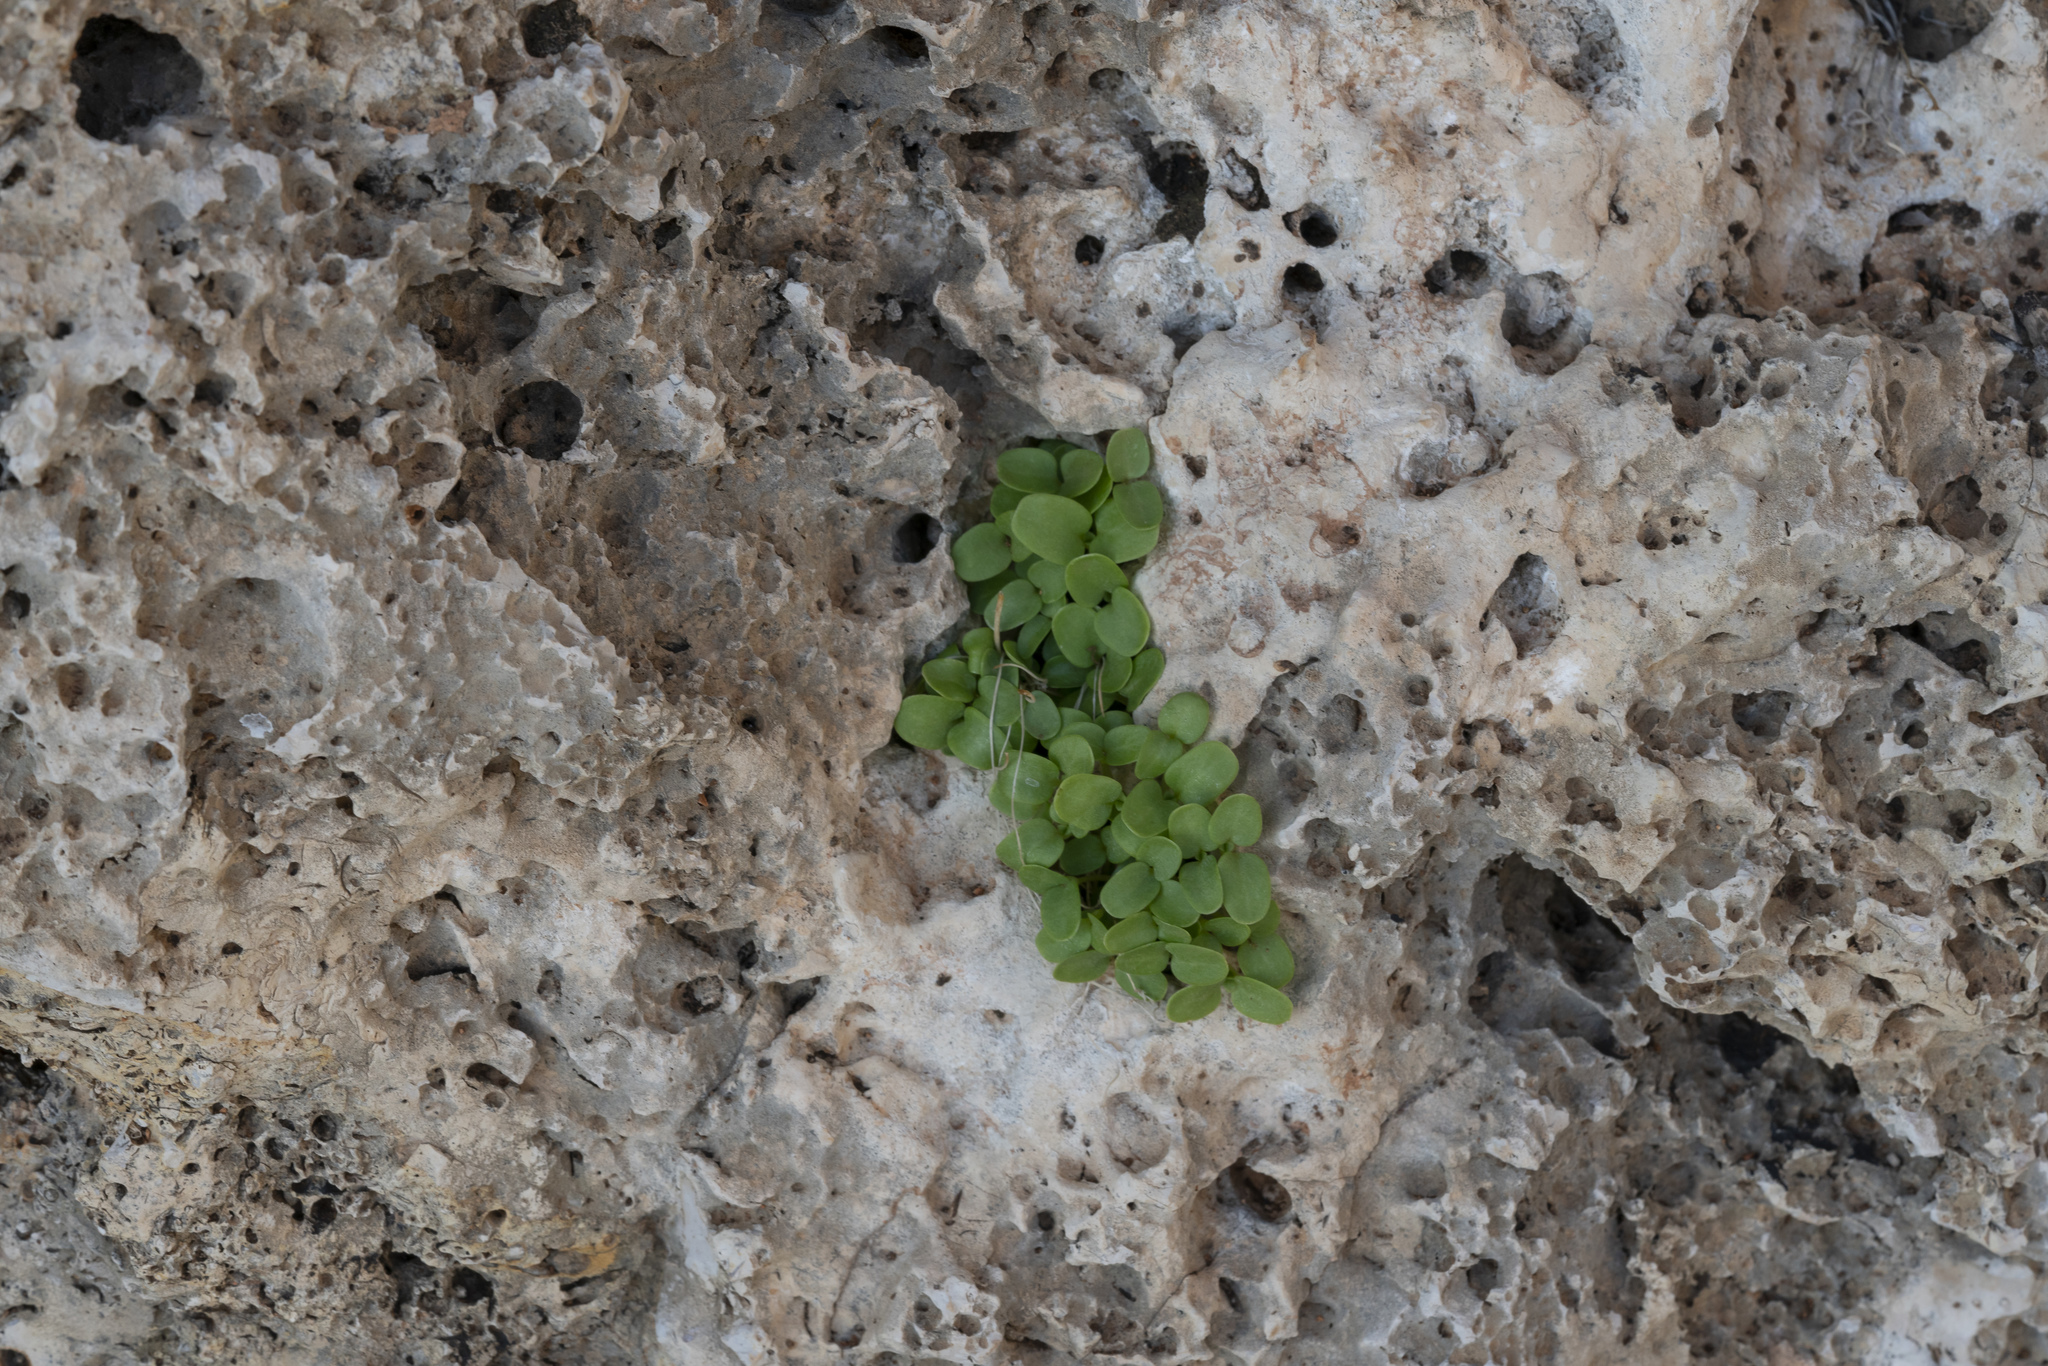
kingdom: Plantae
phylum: Tracheophyta
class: Magnoliopsida
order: Gentianales
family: Rubiaceae
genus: Theligonum
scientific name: Theligonum cynocrambe
